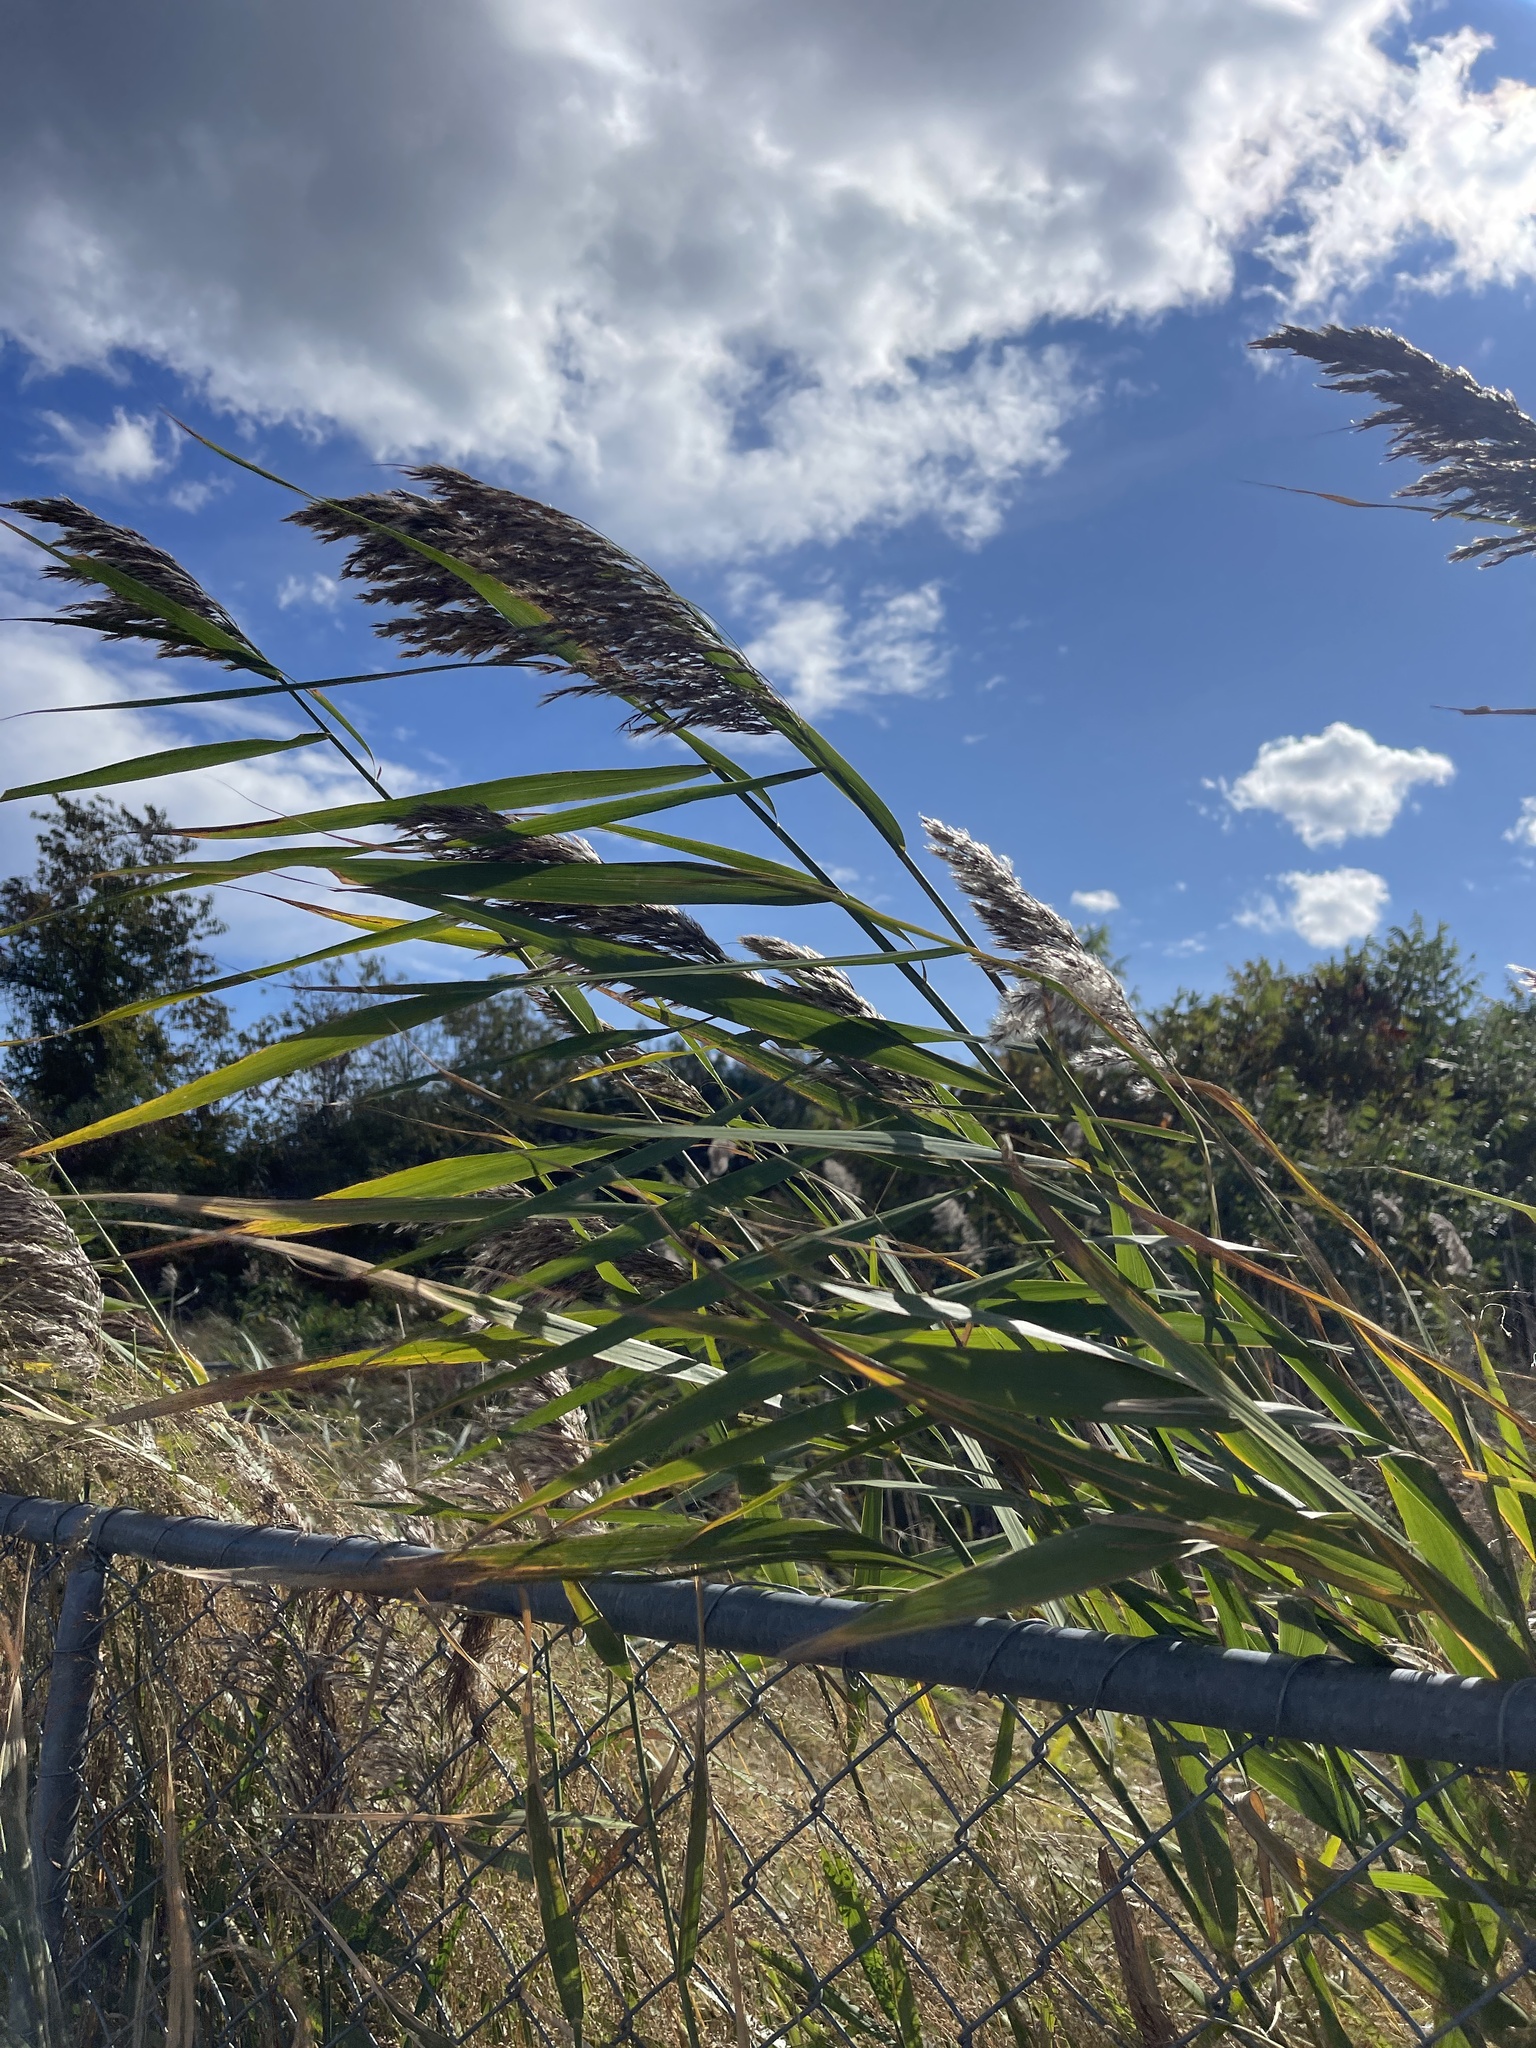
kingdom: Plantae
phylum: Tracheophyta
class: Liliopsida
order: Poales
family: Poaceae
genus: Phragmites
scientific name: Phragmites australis
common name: Common reed
